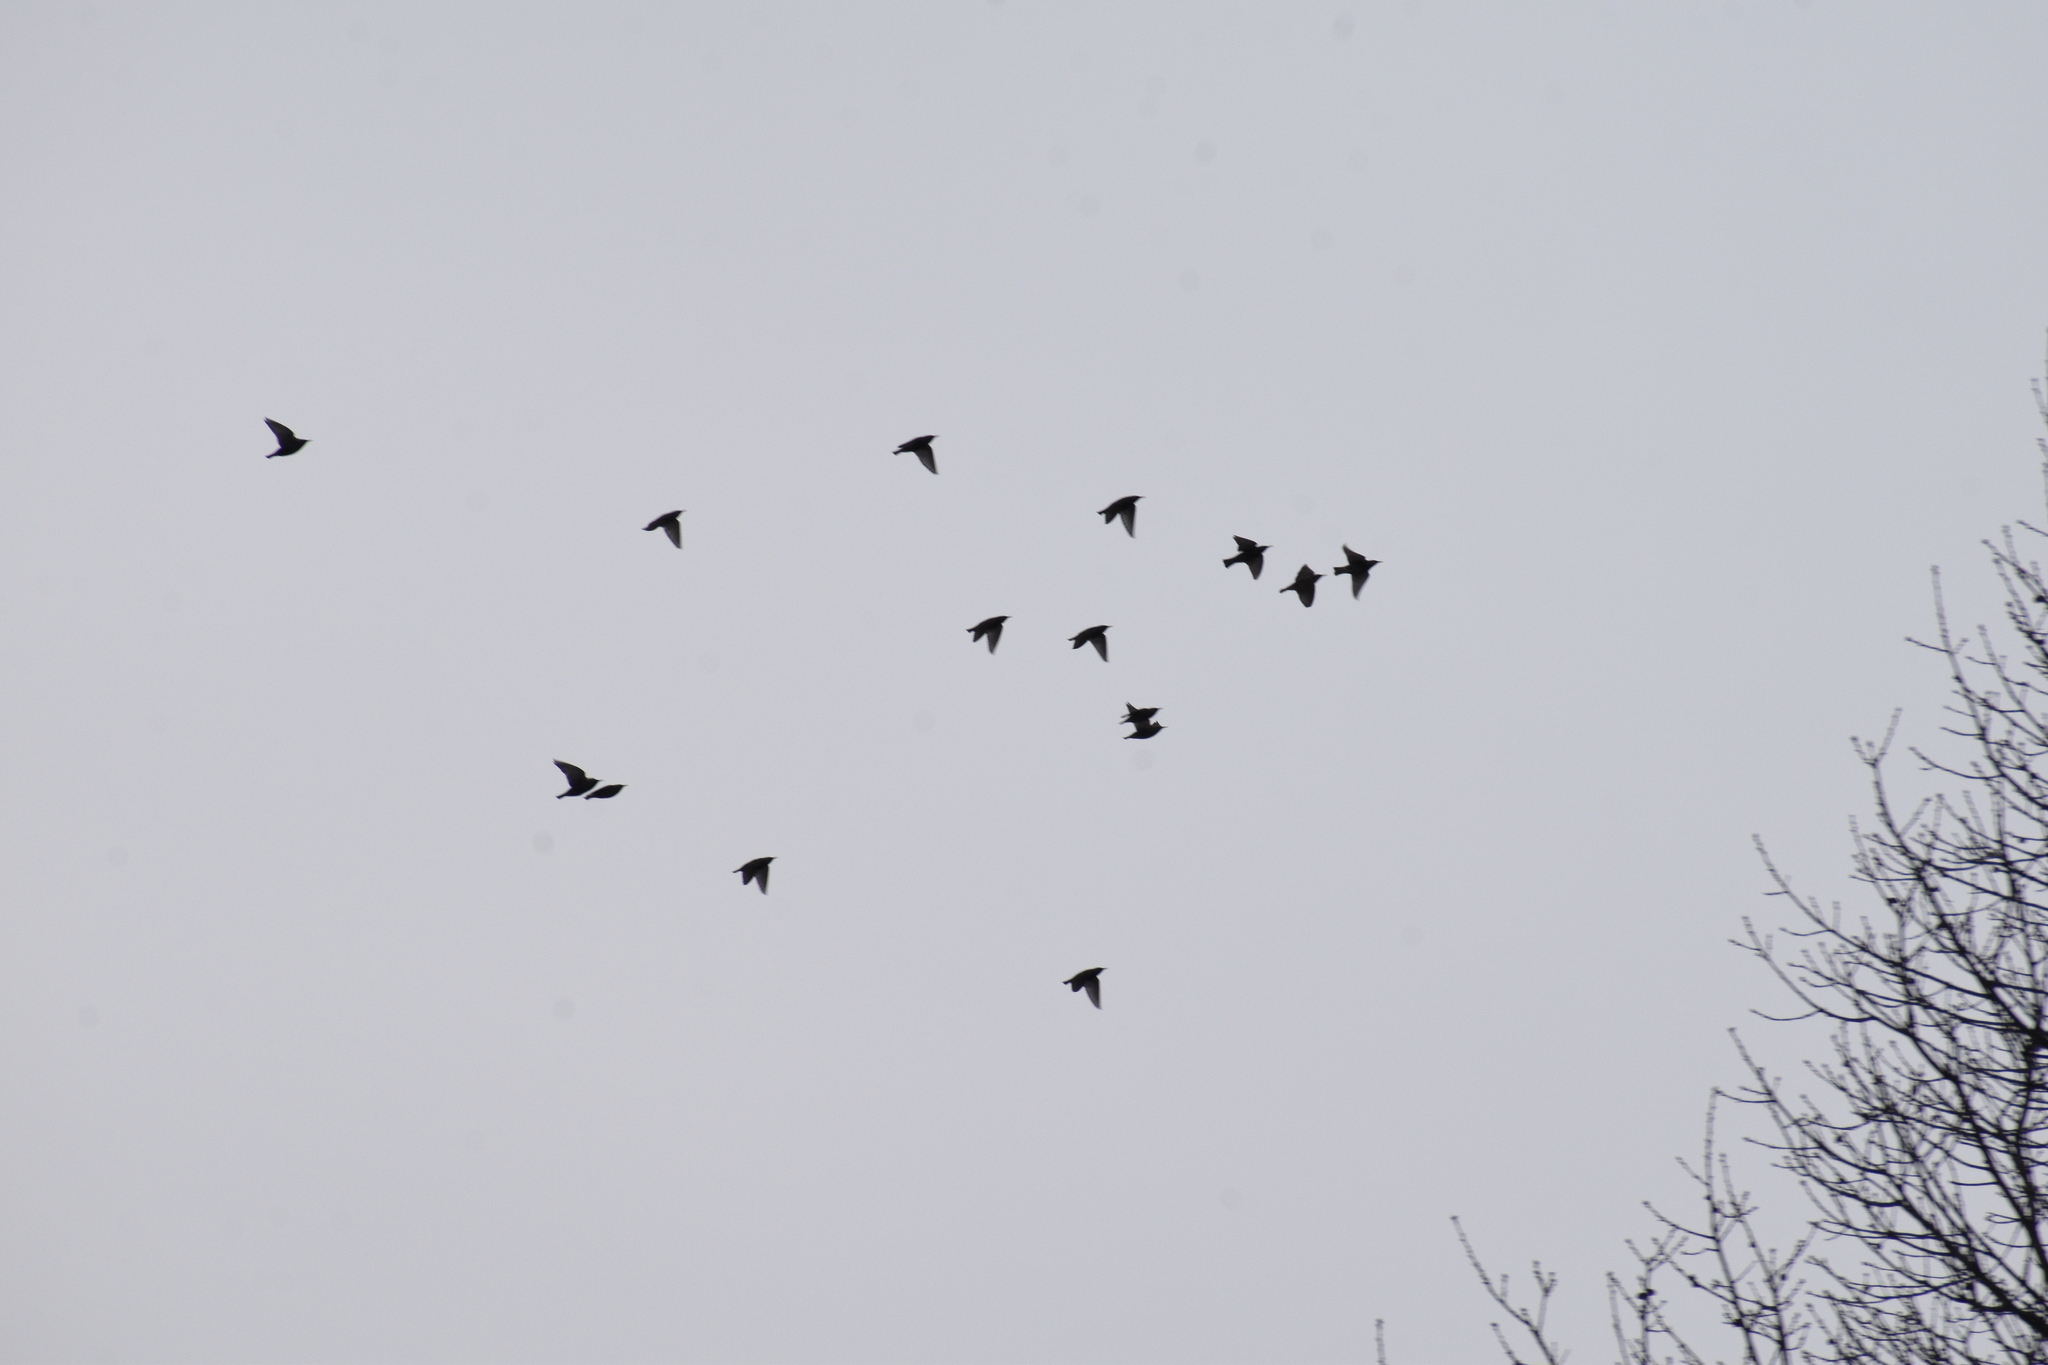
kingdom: Animalia
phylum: Chordata
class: Aves
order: Passeriformes
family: Sturnidae
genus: Sturnus
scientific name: Sturnus vulgaris
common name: Common starling
